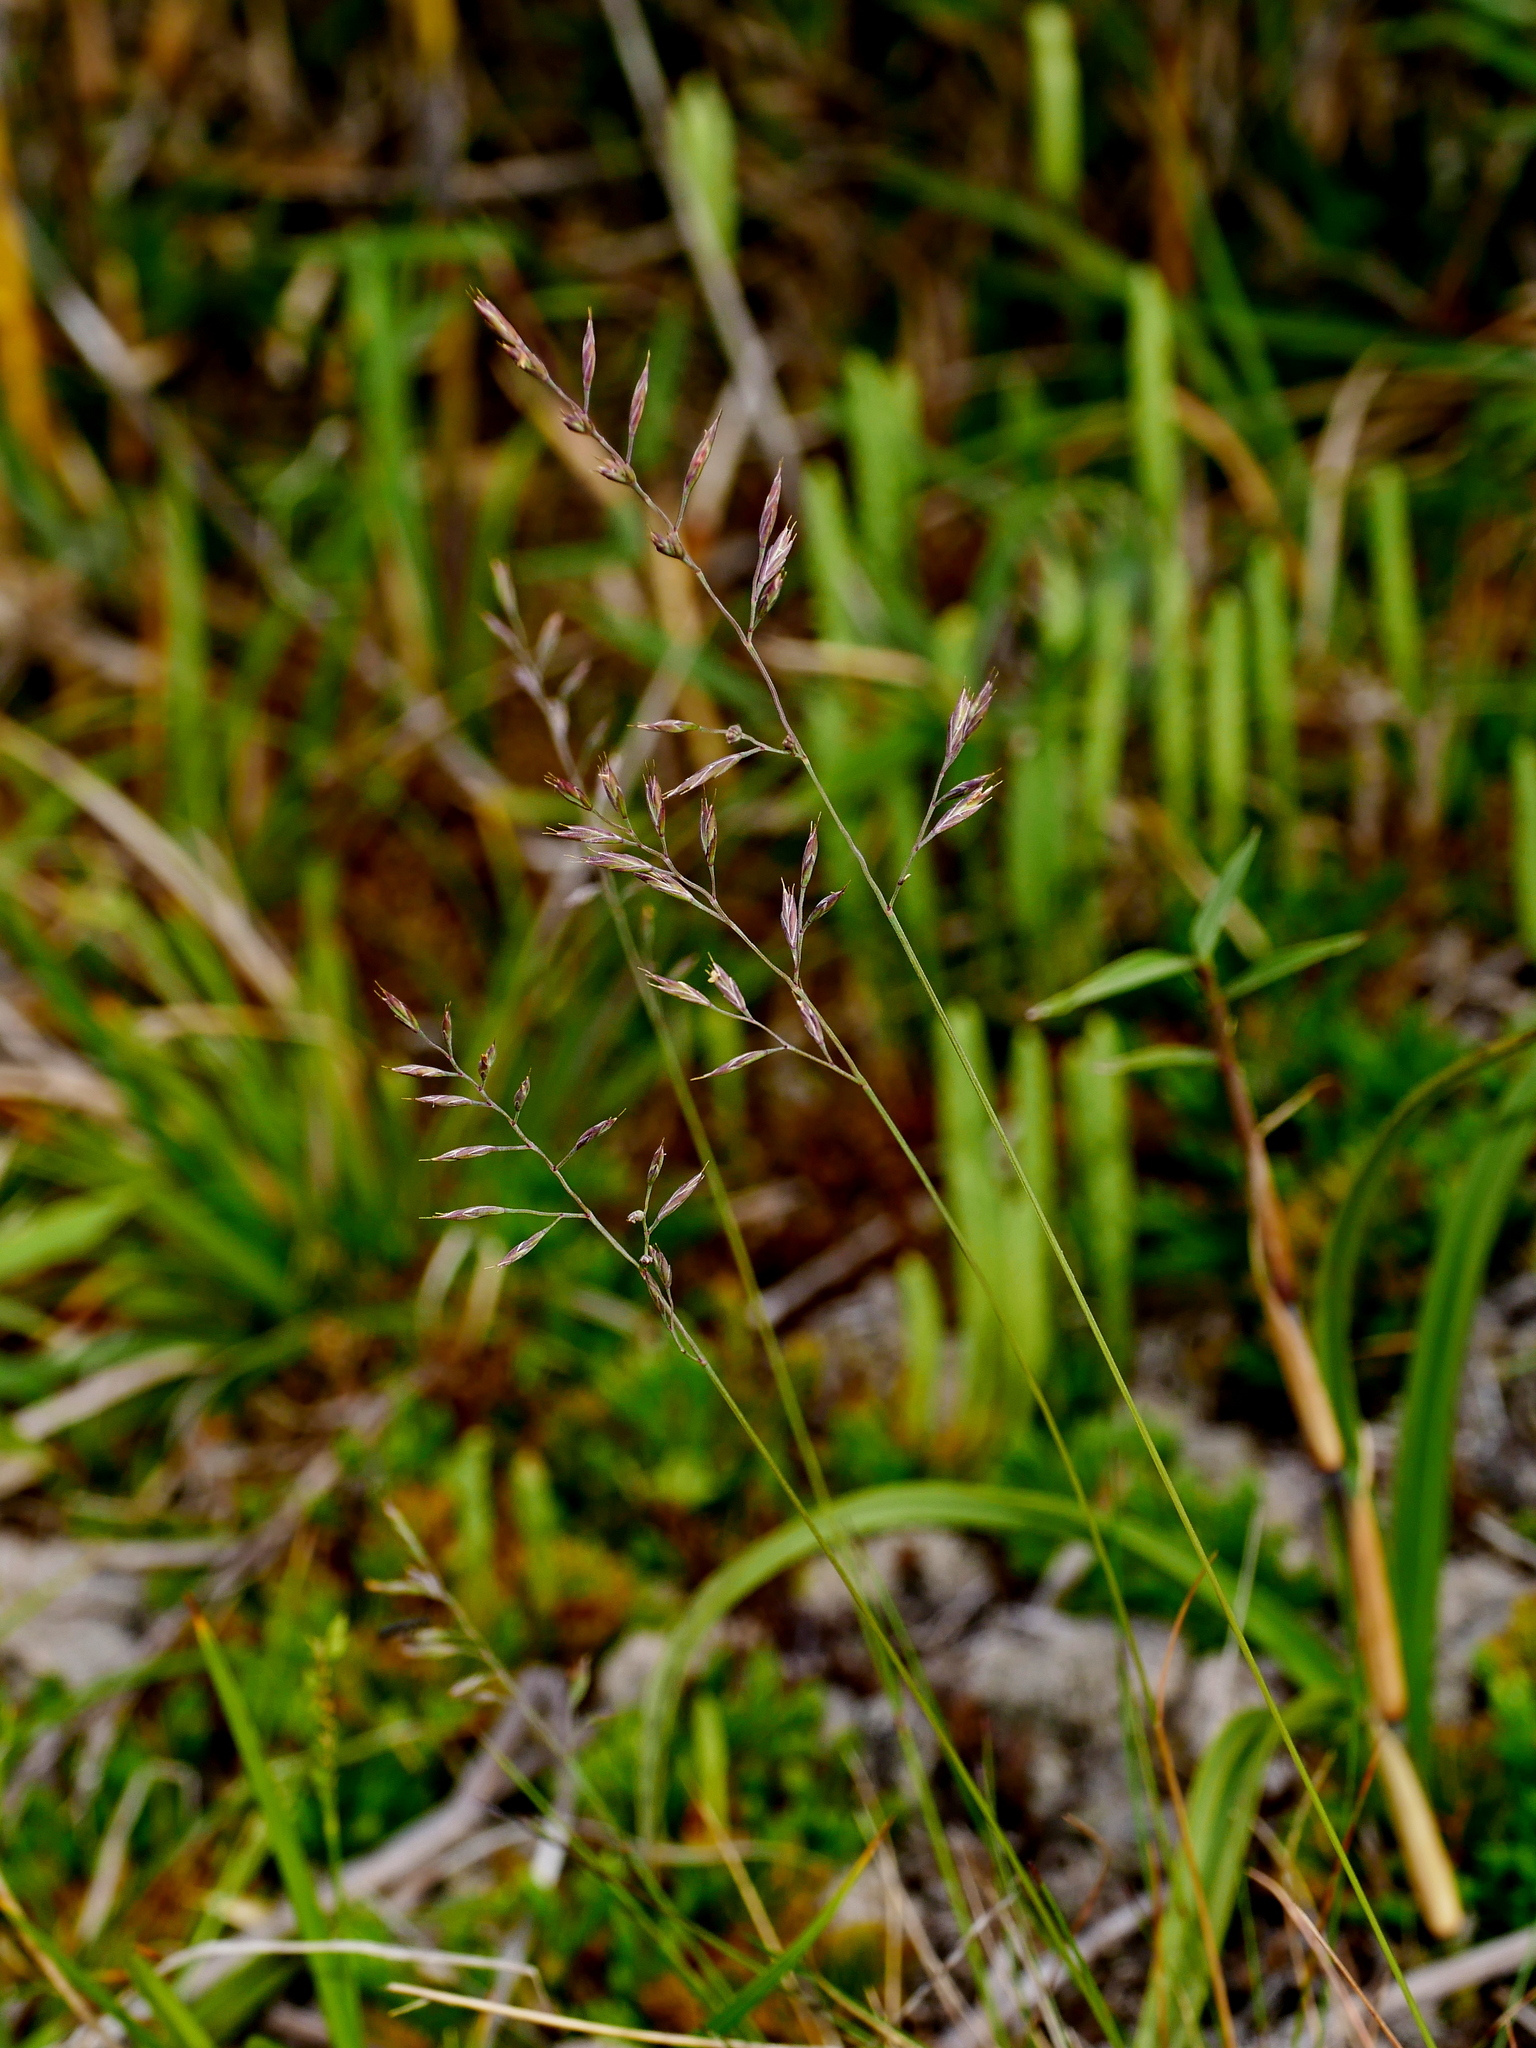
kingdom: Plantae
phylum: Tracheophyta
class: Liliopsida
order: Poales
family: Poaceae
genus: Festuca
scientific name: Festuca ovina
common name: Sheep fescue
